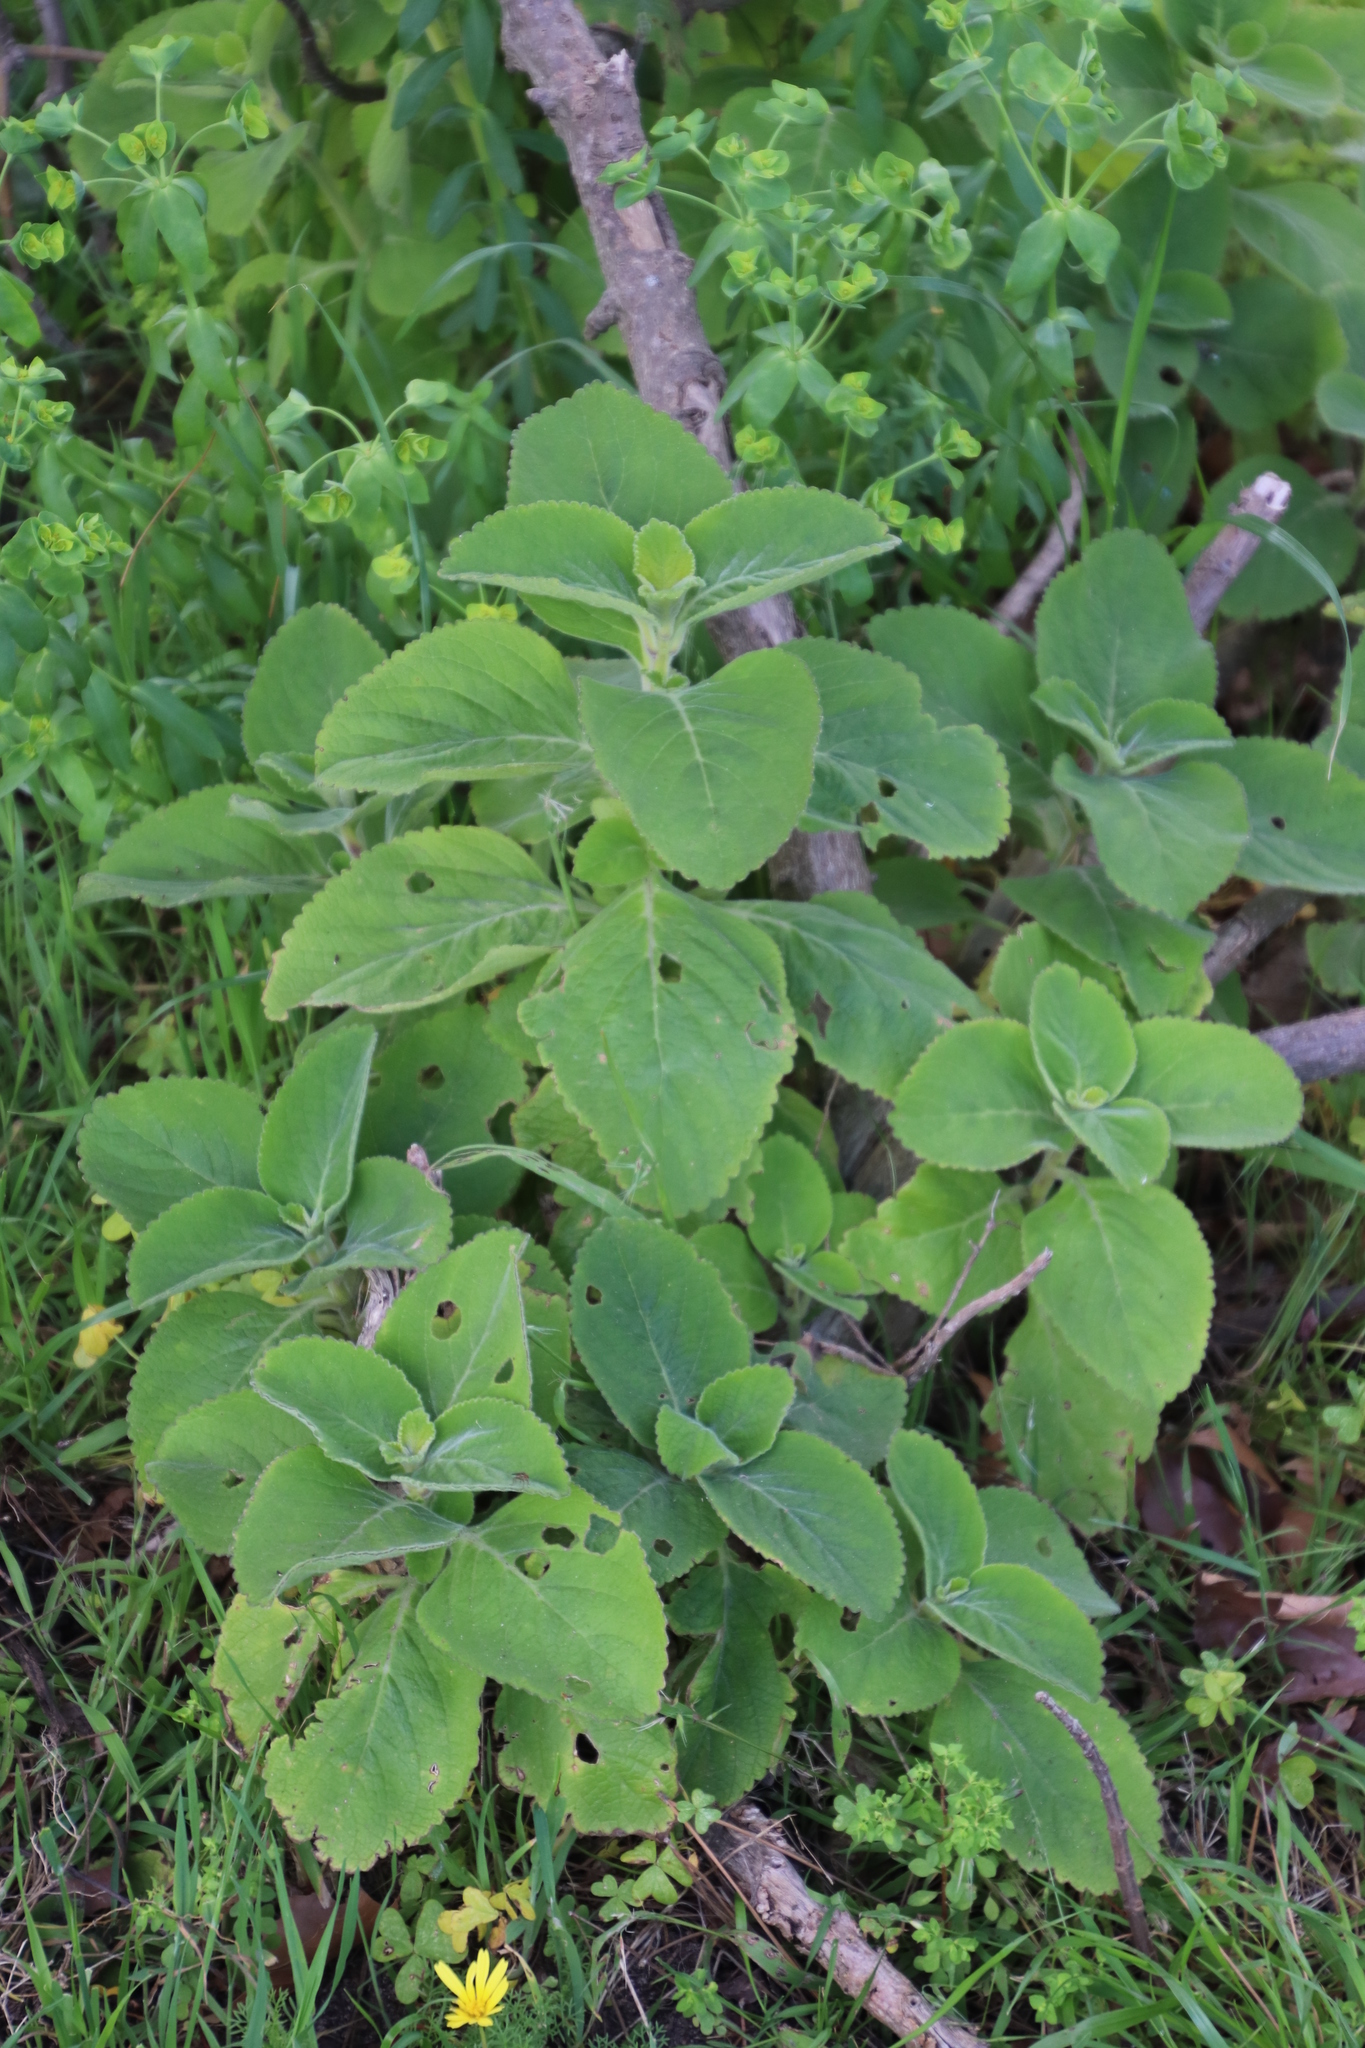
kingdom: Plantae
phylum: Tracheophyta
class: Magnoliopsida
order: Lamiales
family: Lamiaceae
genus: Coleus
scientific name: Coleus barbatus
